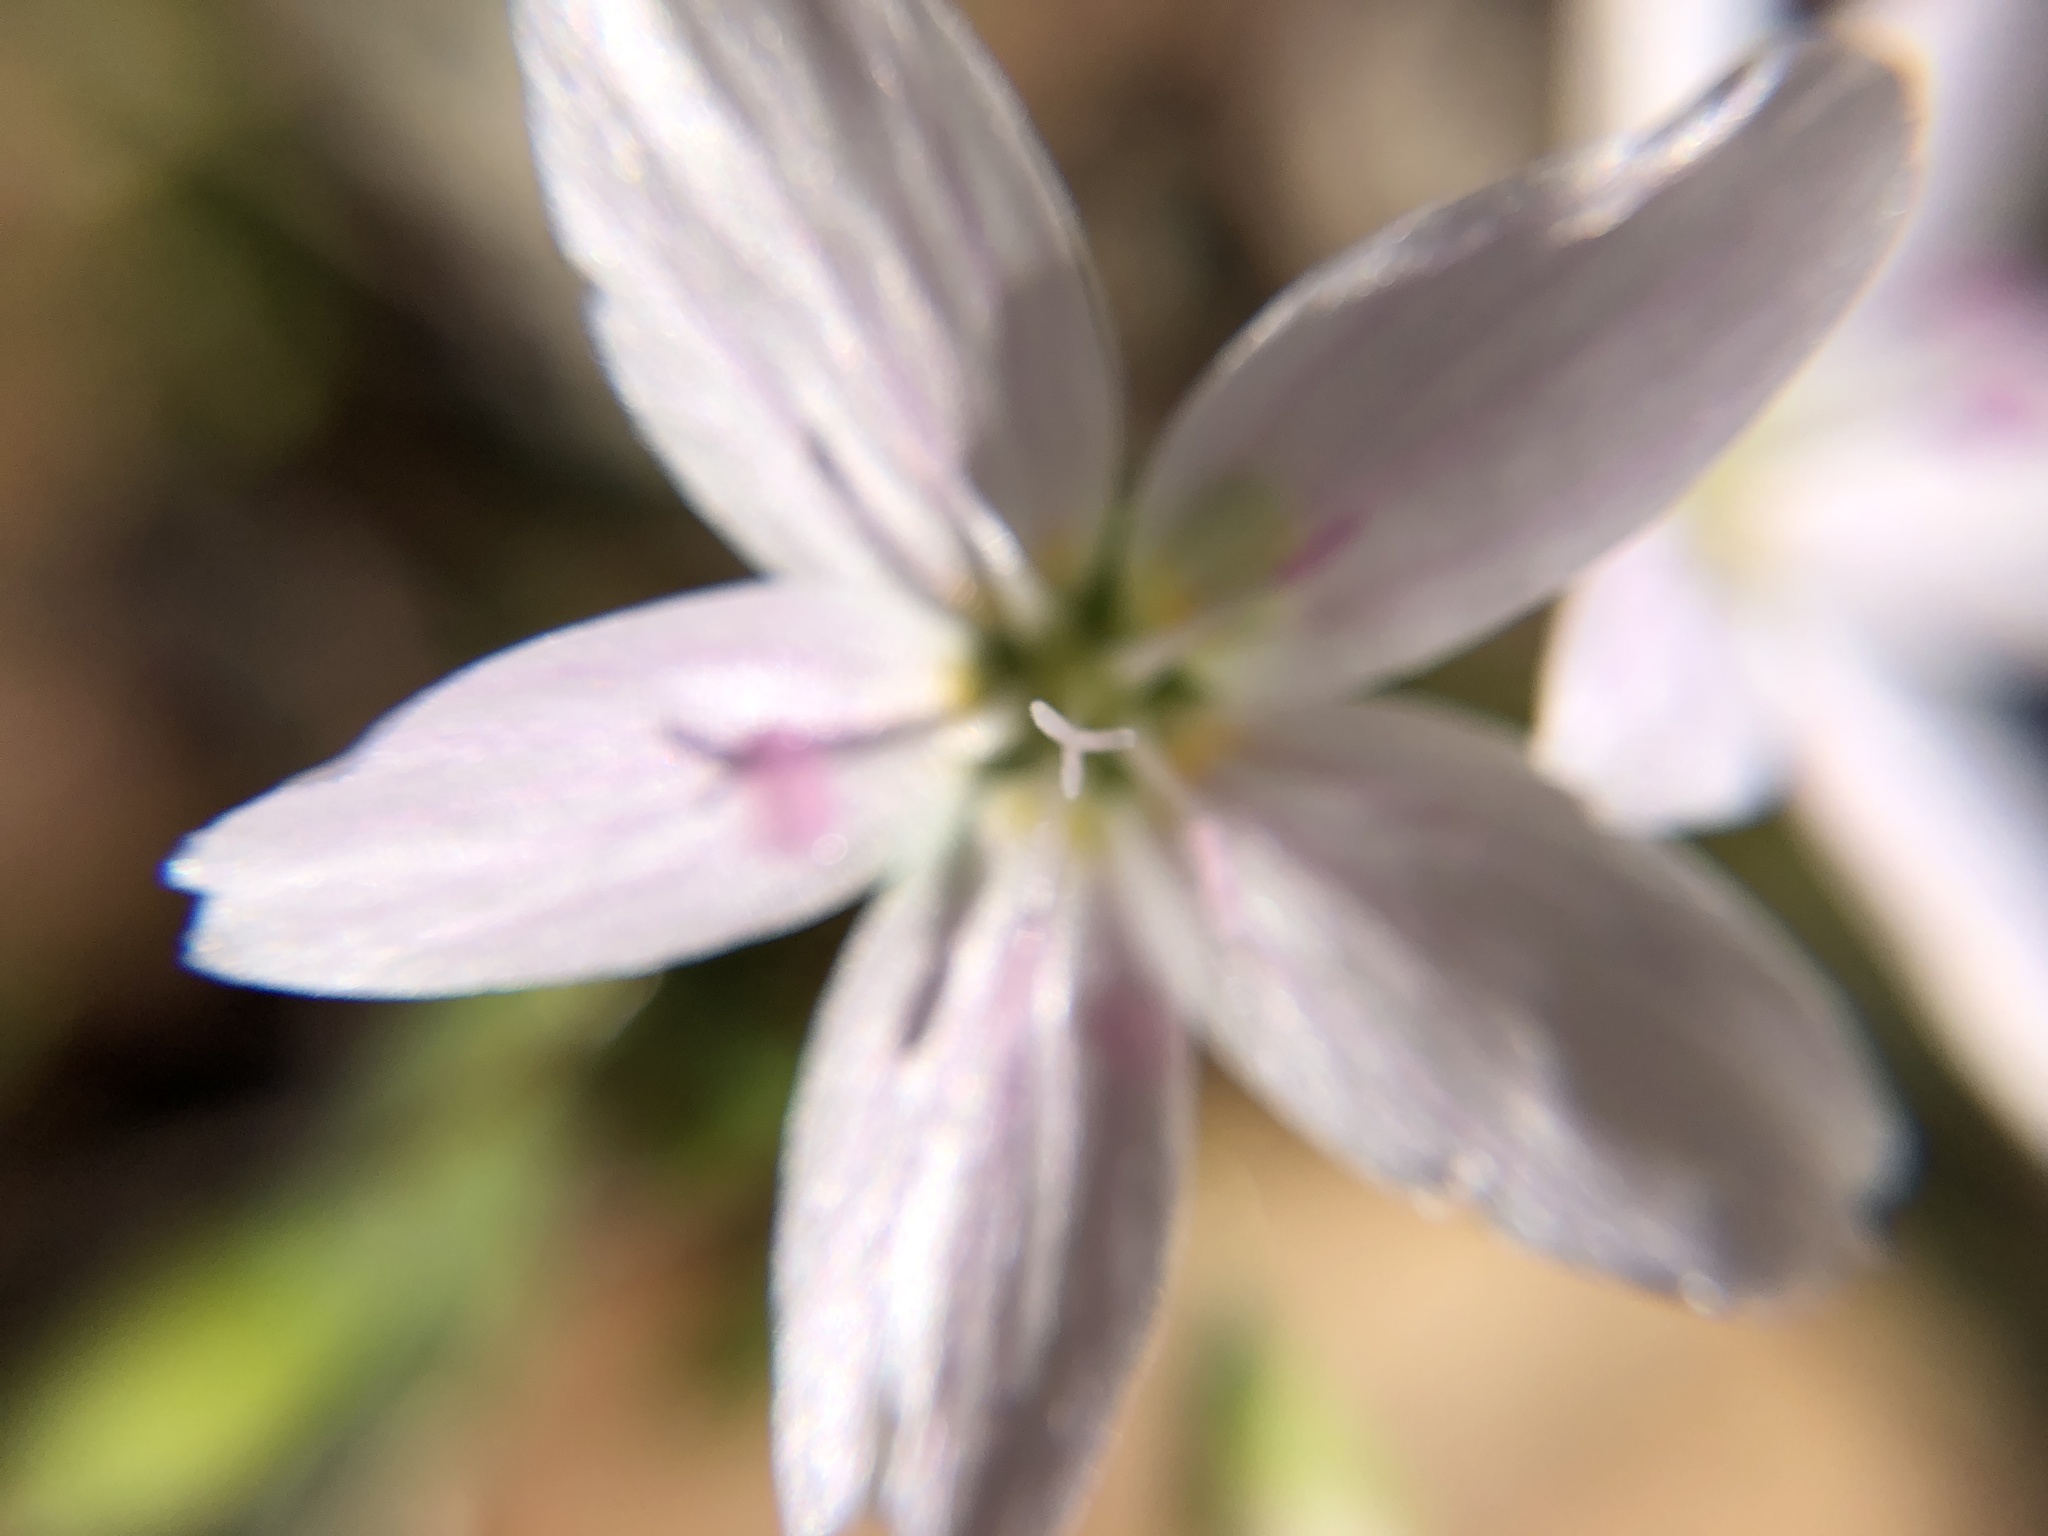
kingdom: Plantae
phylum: Tracheophyta
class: Magnoliopsida
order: Caryophyllales
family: Montiaceae
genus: Claytonia
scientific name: Claytonia virginica
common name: Virginia springbeauty
